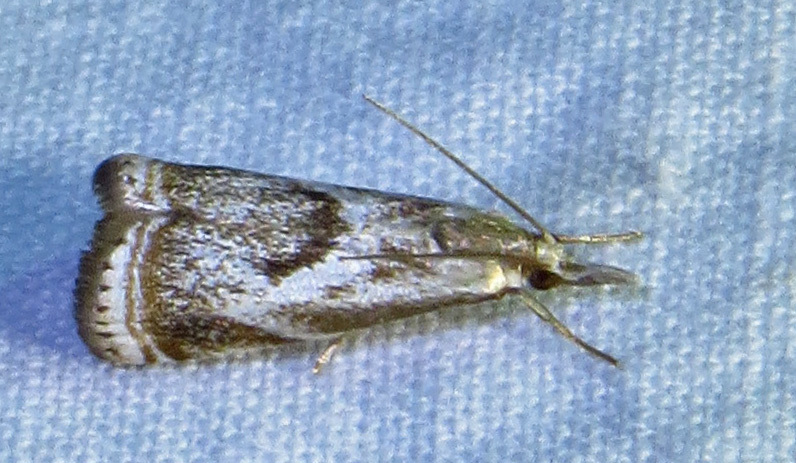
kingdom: Animalia
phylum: Arthropoda
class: Insecta
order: Lepidoptera
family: Crambidae
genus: Microcrambus
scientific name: Microcrambus elegans
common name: Elegant grass-veneer
